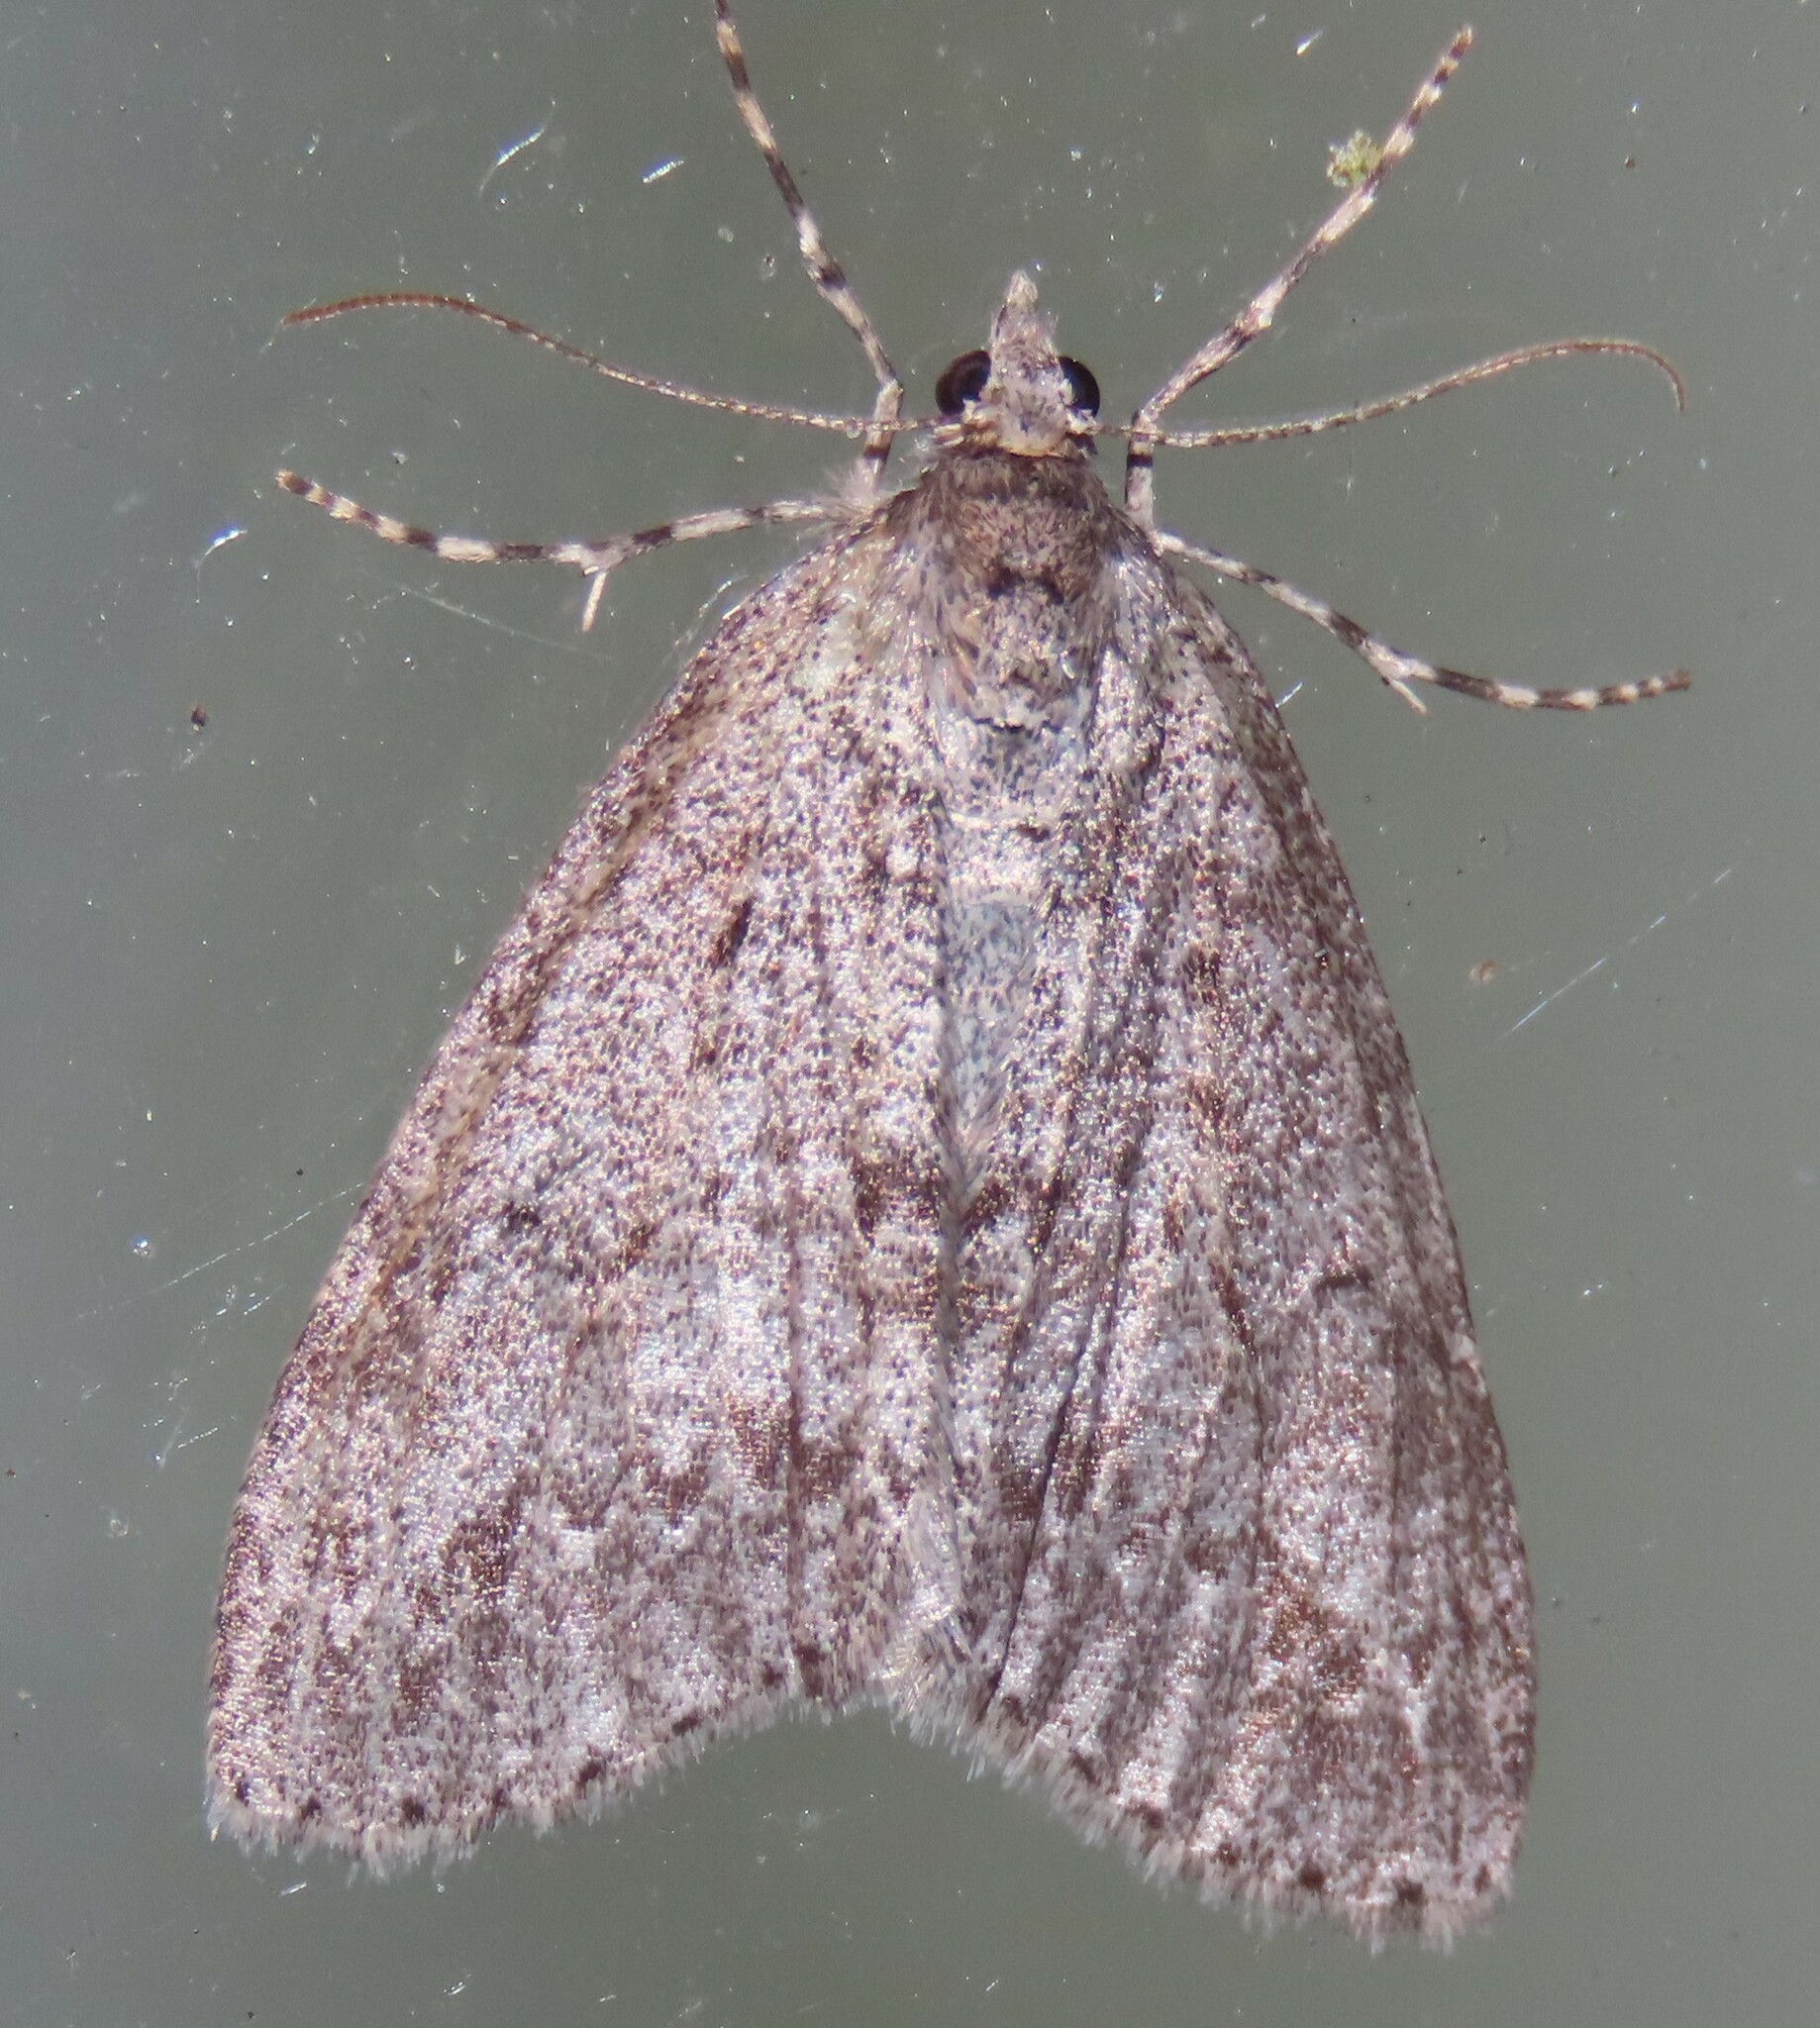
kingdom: Animalia
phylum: Arthropoda
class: Insecta
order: Lepidoptera
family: Geometridae
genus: Pseudocoremia
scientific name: Pseudocoremia fenerata
